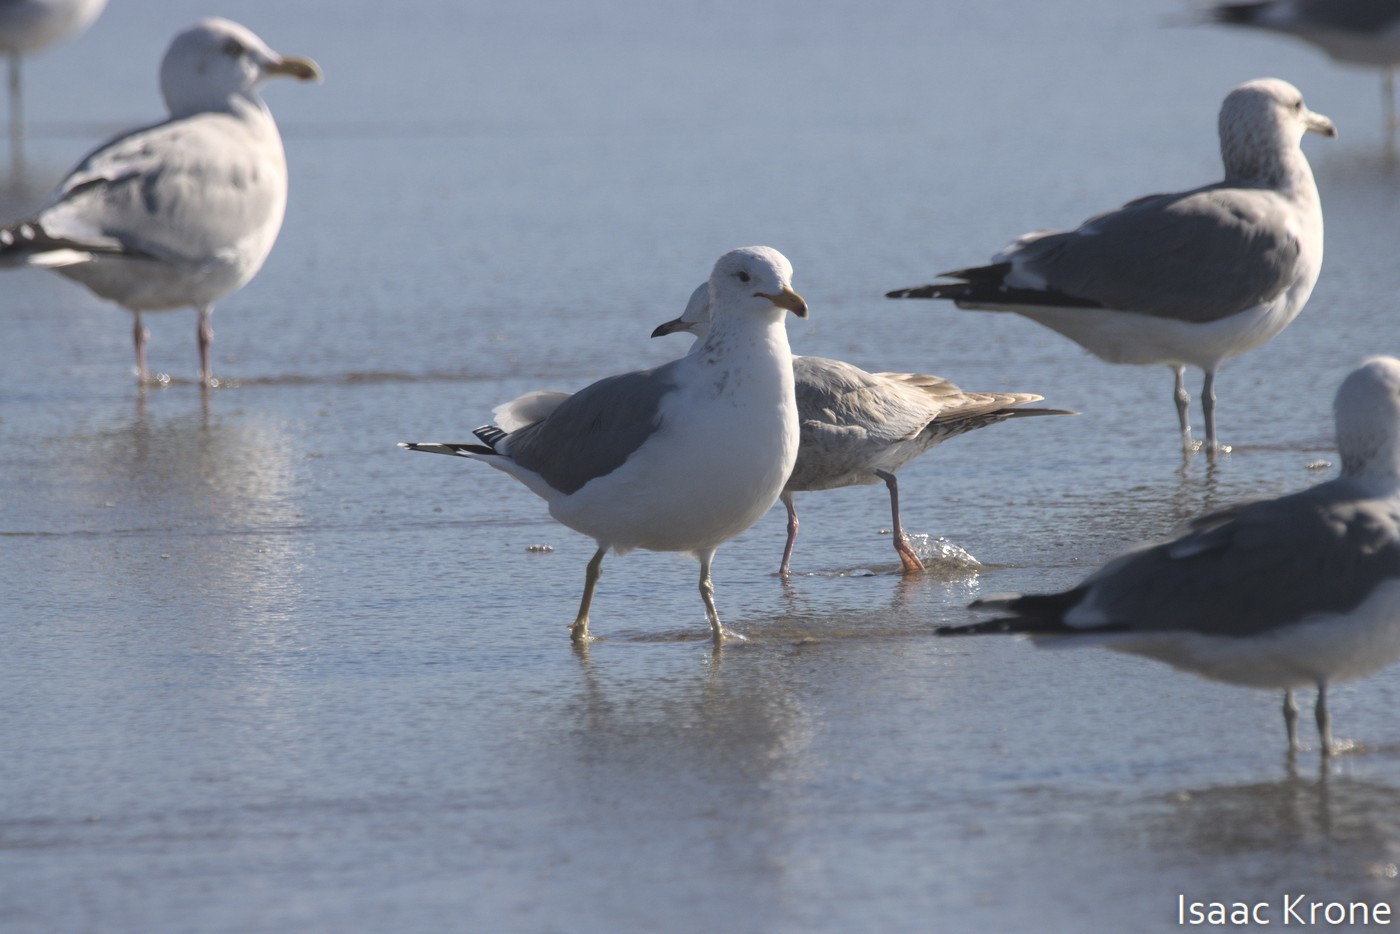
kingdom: Animalia
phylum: Chordata
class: Aves
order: Charadriiformes
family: Laridae
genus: Larus
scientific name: Larus delawarensis
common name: Ring-billed gull
